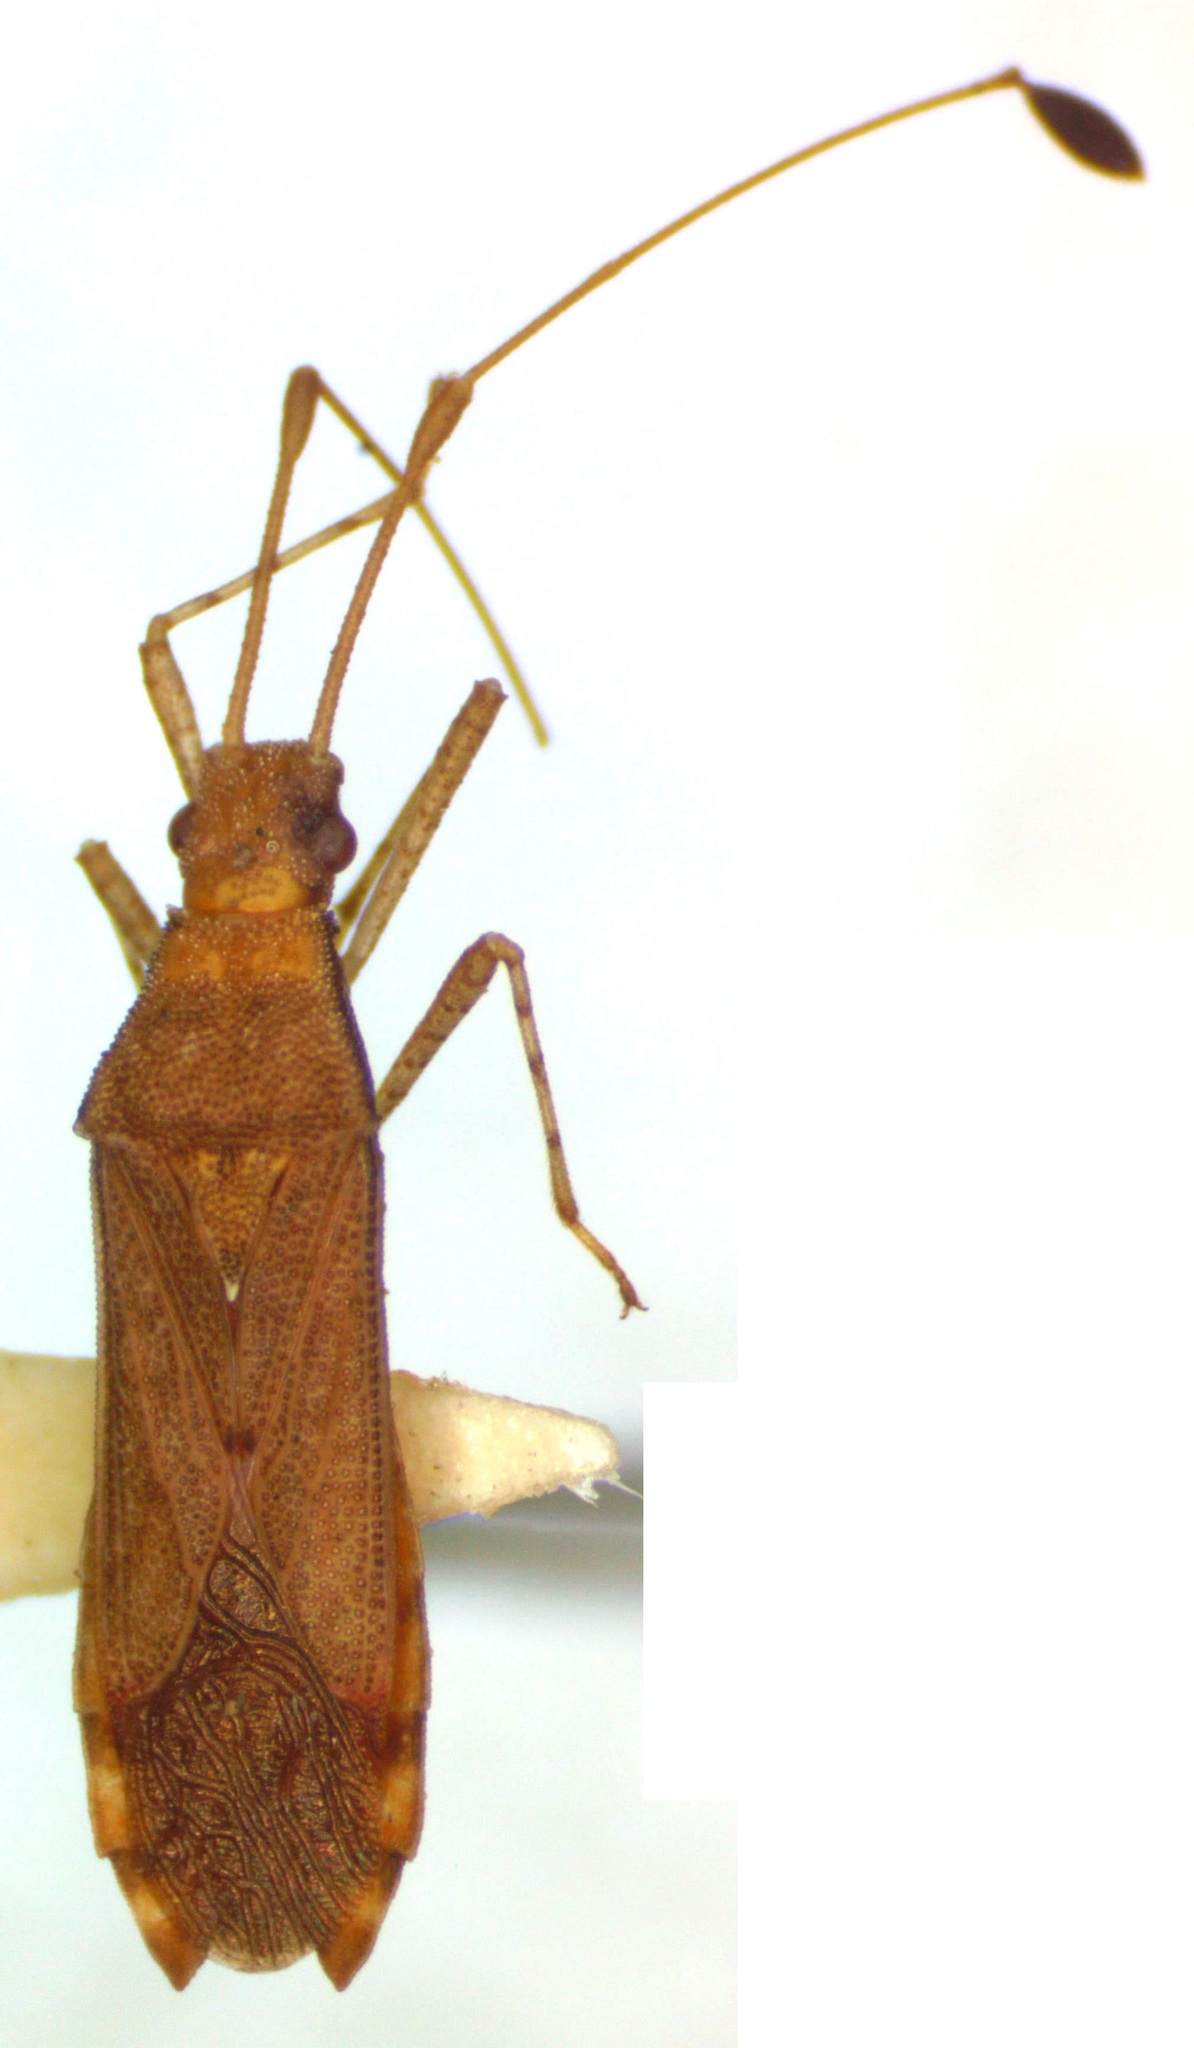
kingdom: Animalia
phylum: Arthropoda
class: Insecta
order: Hemiptera
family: Coreidae
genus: Madura
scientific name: Madura perfida
